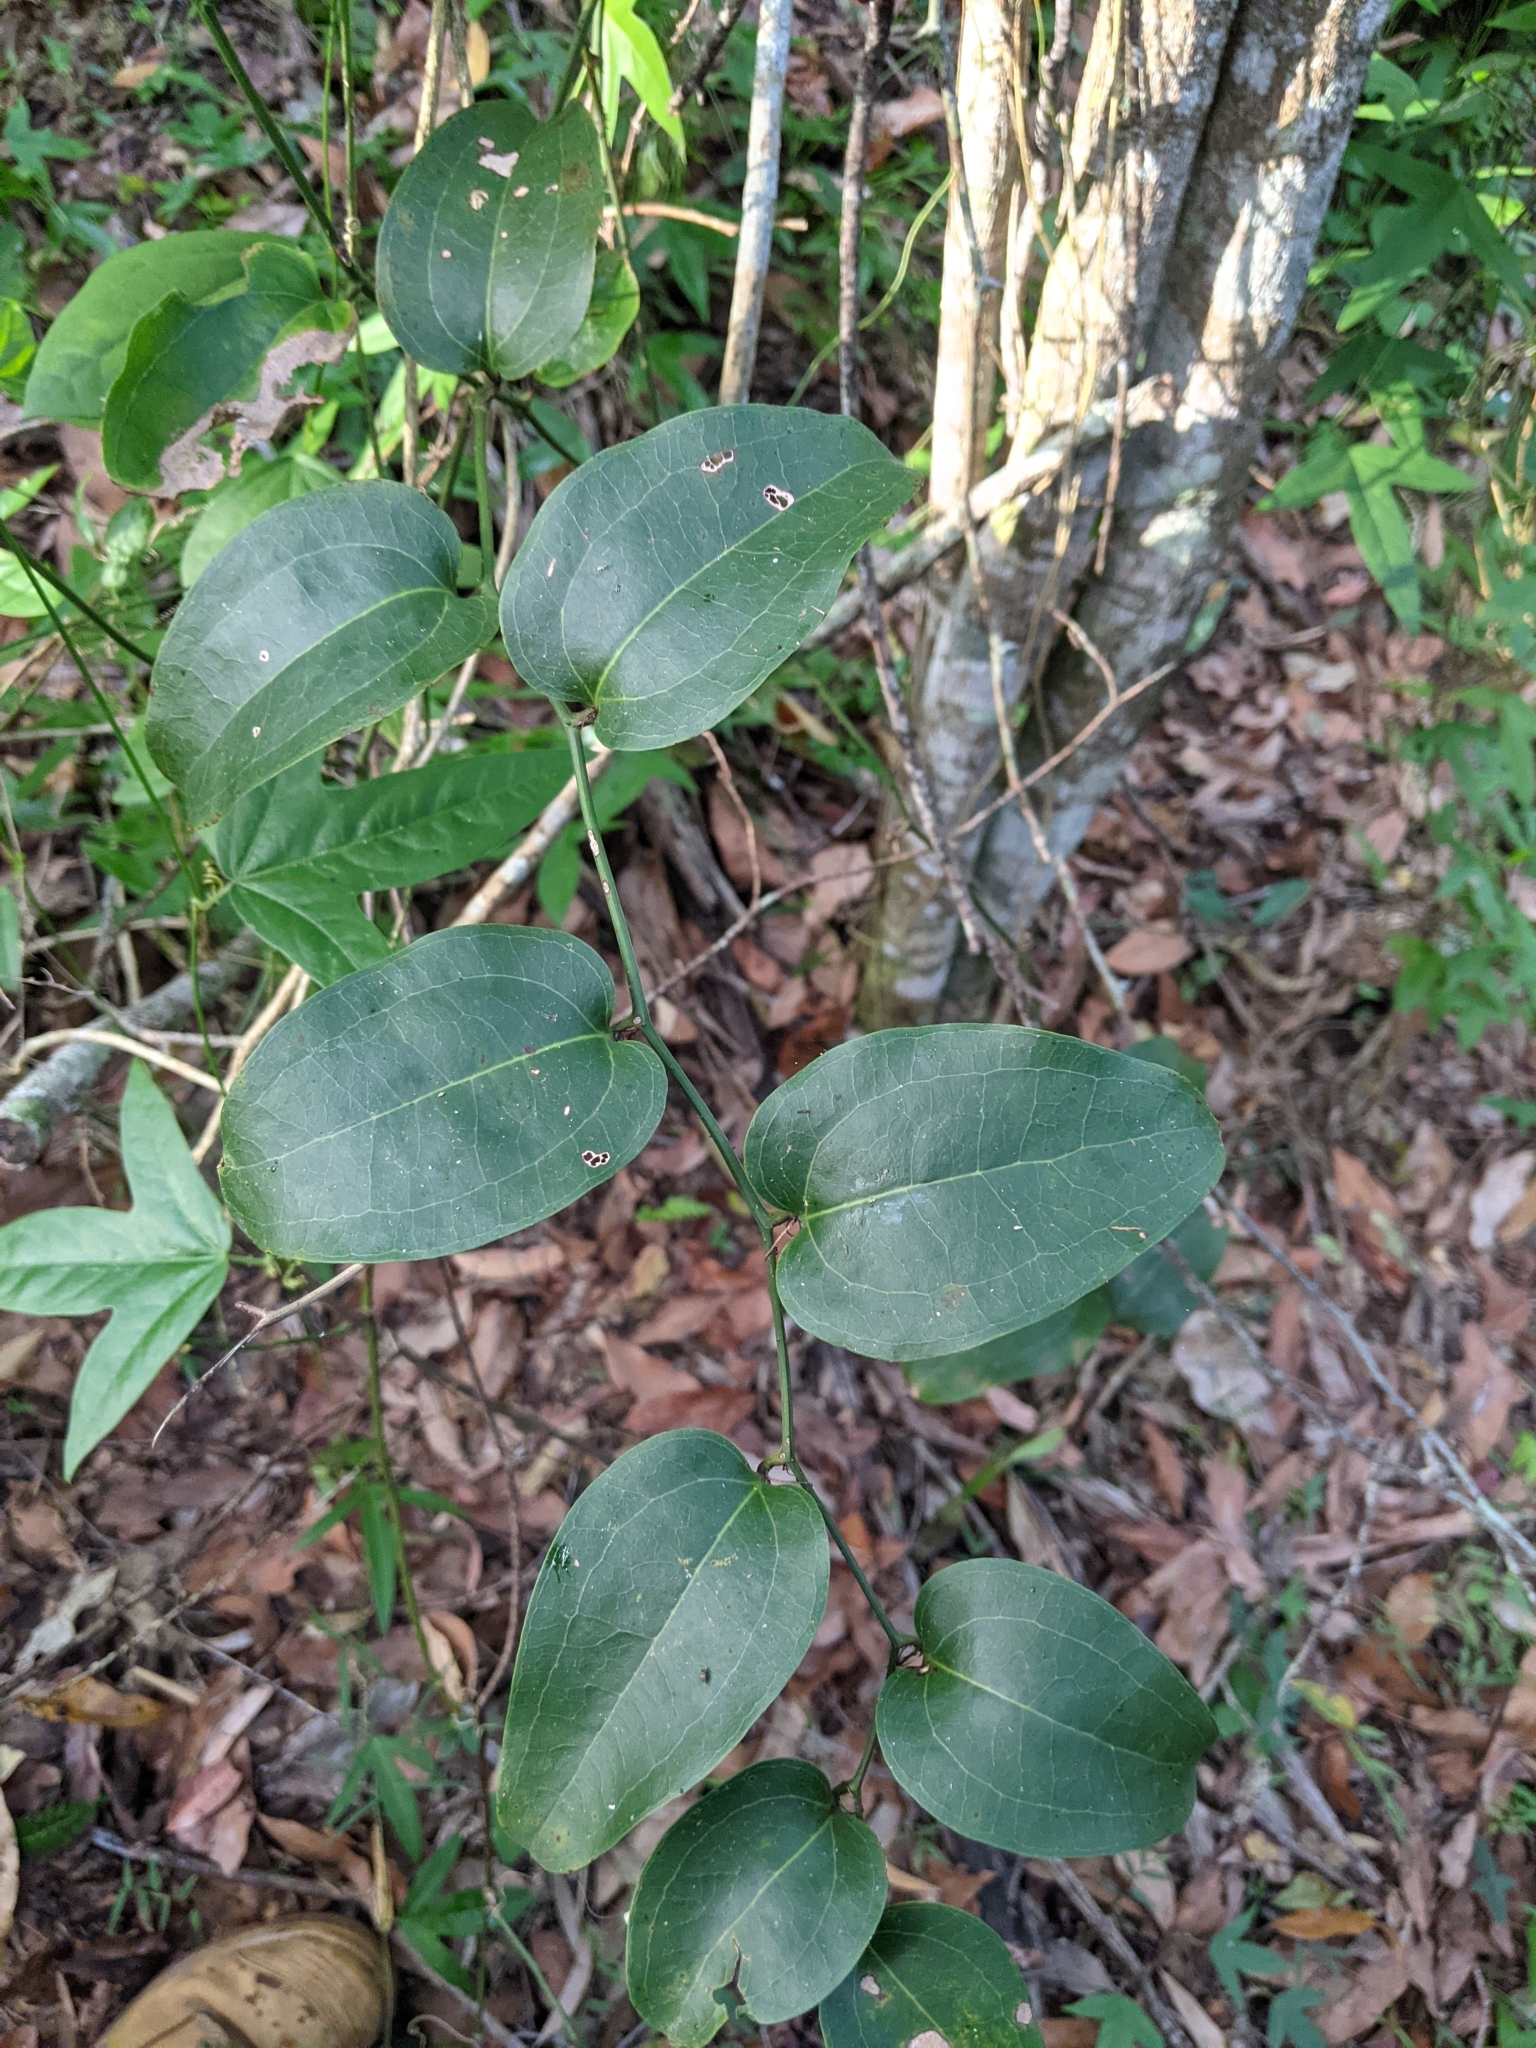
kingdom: Plantae
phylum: Tracheophyta
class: Liliopsida
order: Liliales
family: Smilacaceae
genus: Smilax
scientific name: Smilax australis
